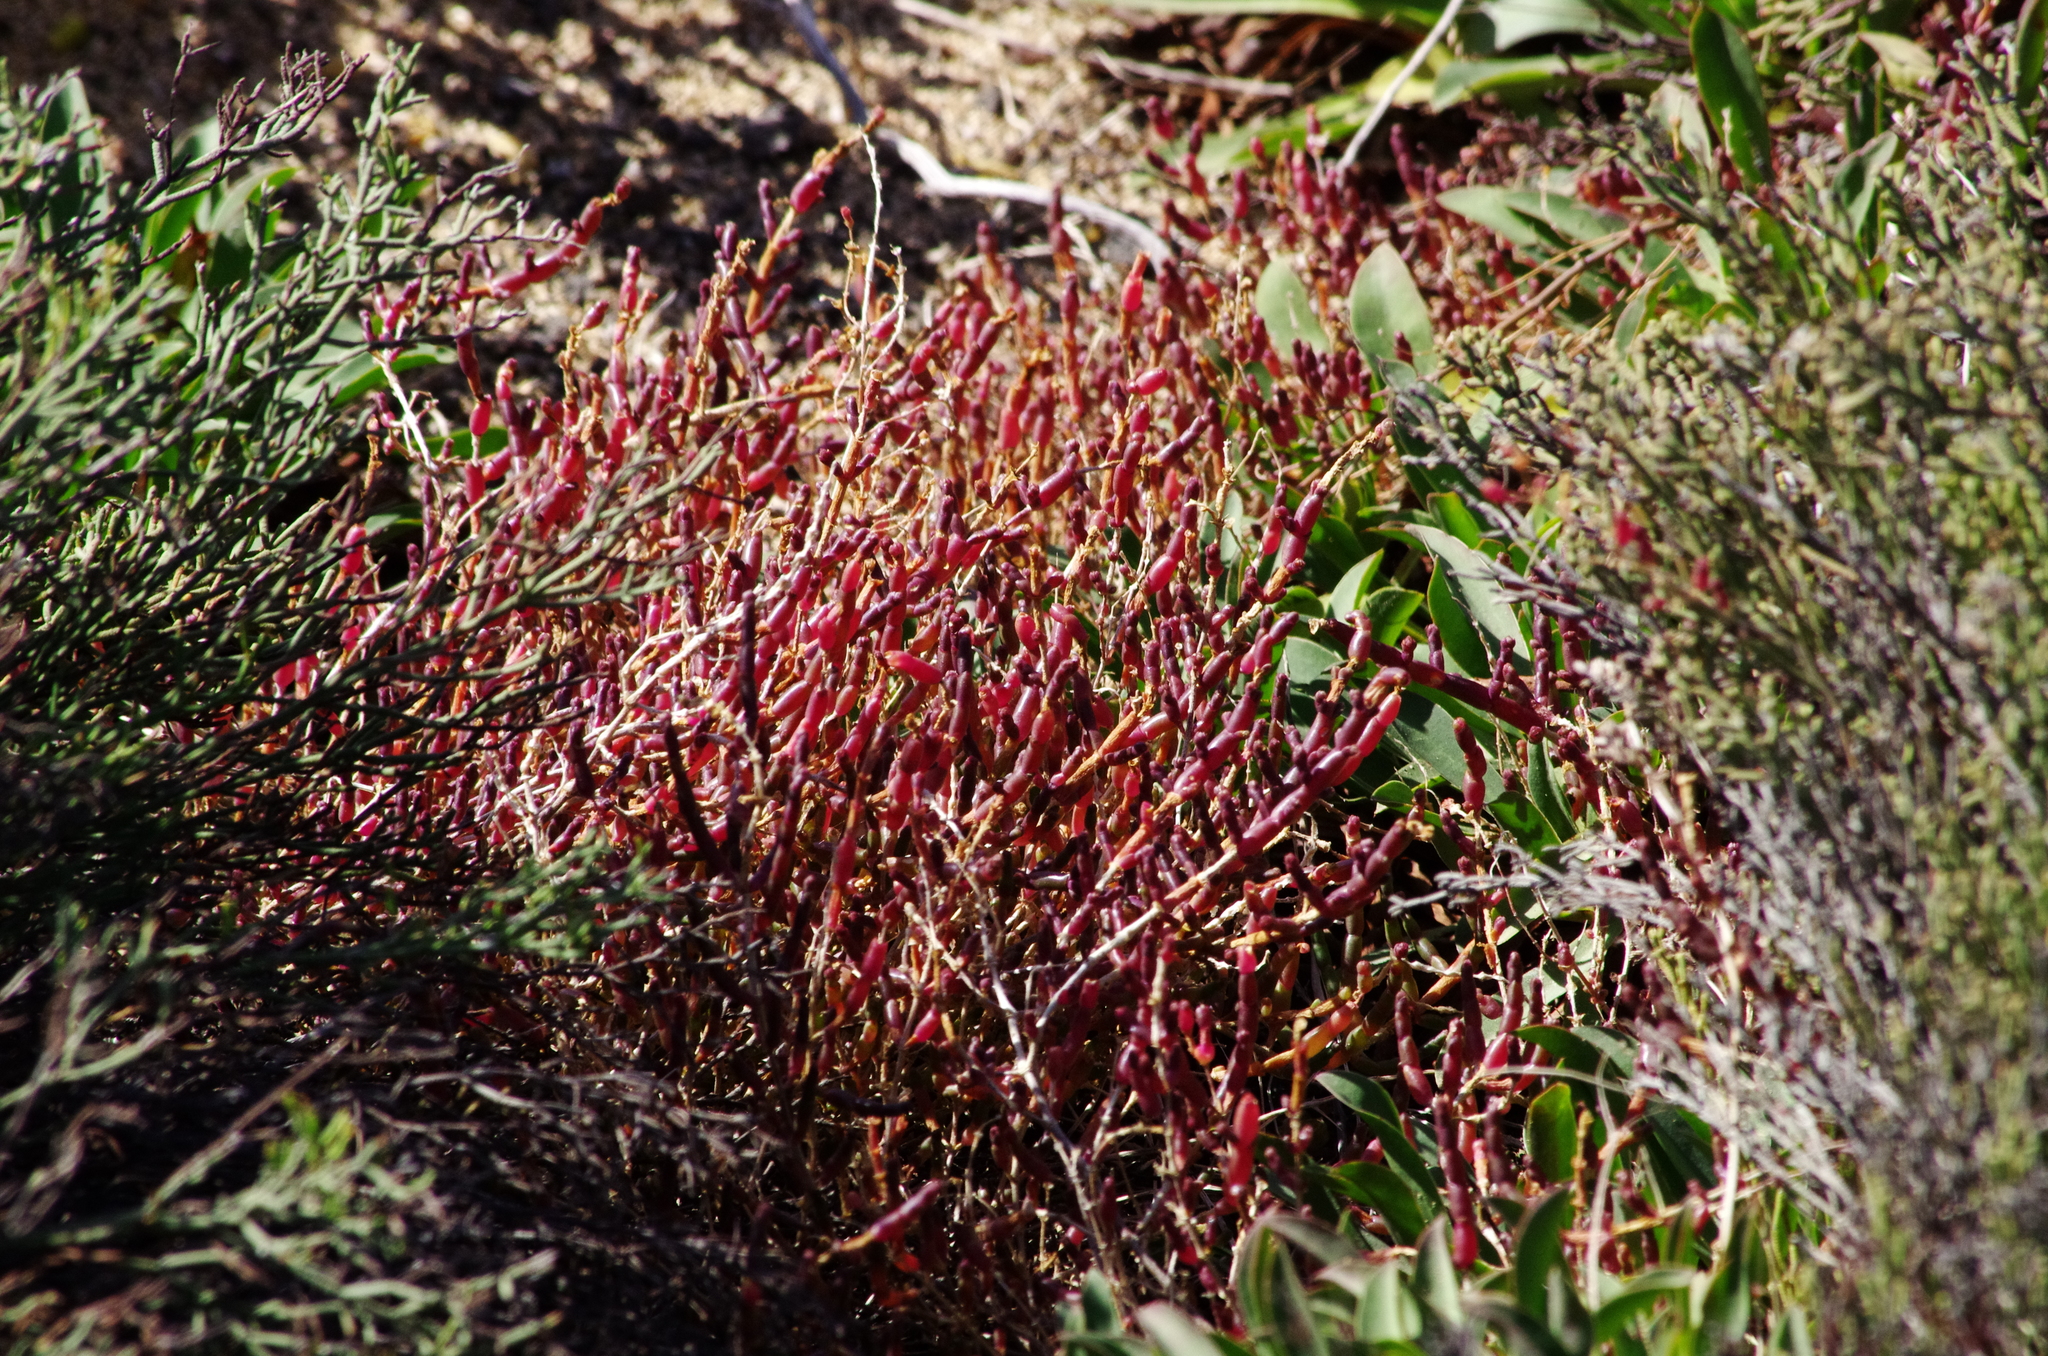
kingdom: Plantae
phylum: Tracheophyta
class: Magnoliopsida
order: Caryophyllales
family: Amaranthaceae
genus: Salicornia
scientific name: Salicornia perennis
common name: Chicken claws
